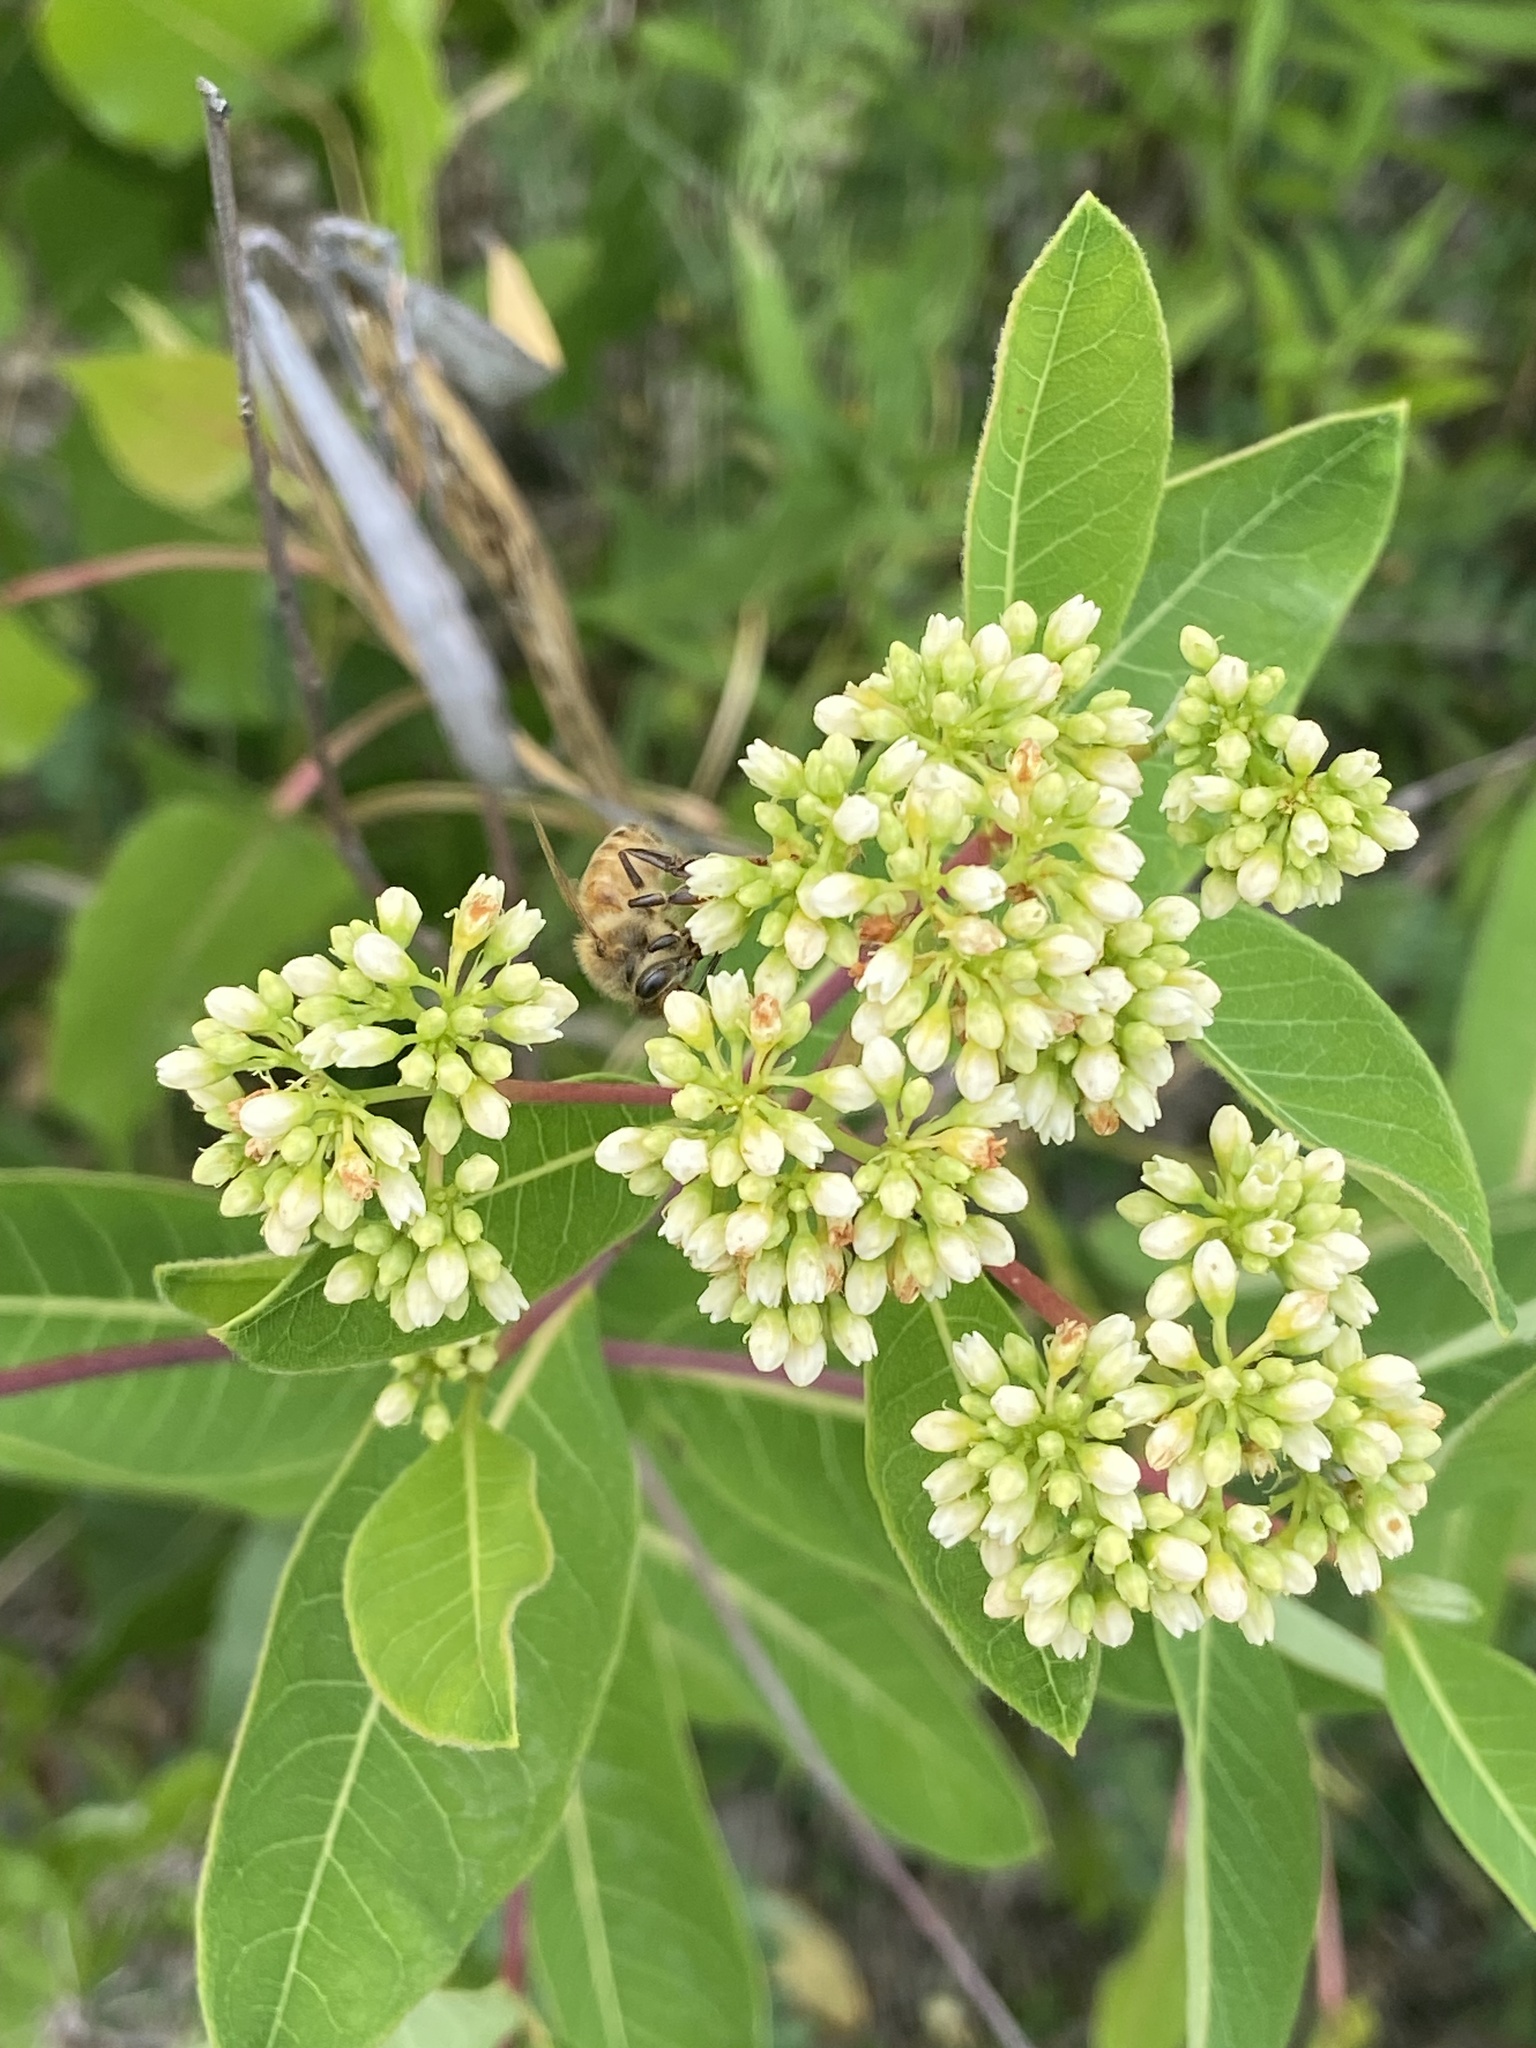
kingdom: Animalia
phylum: Arthropoda
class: Insecta
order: Hymenoptera
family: Apidae
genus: Apis
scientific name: Apis mellifera
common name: Honey bee
